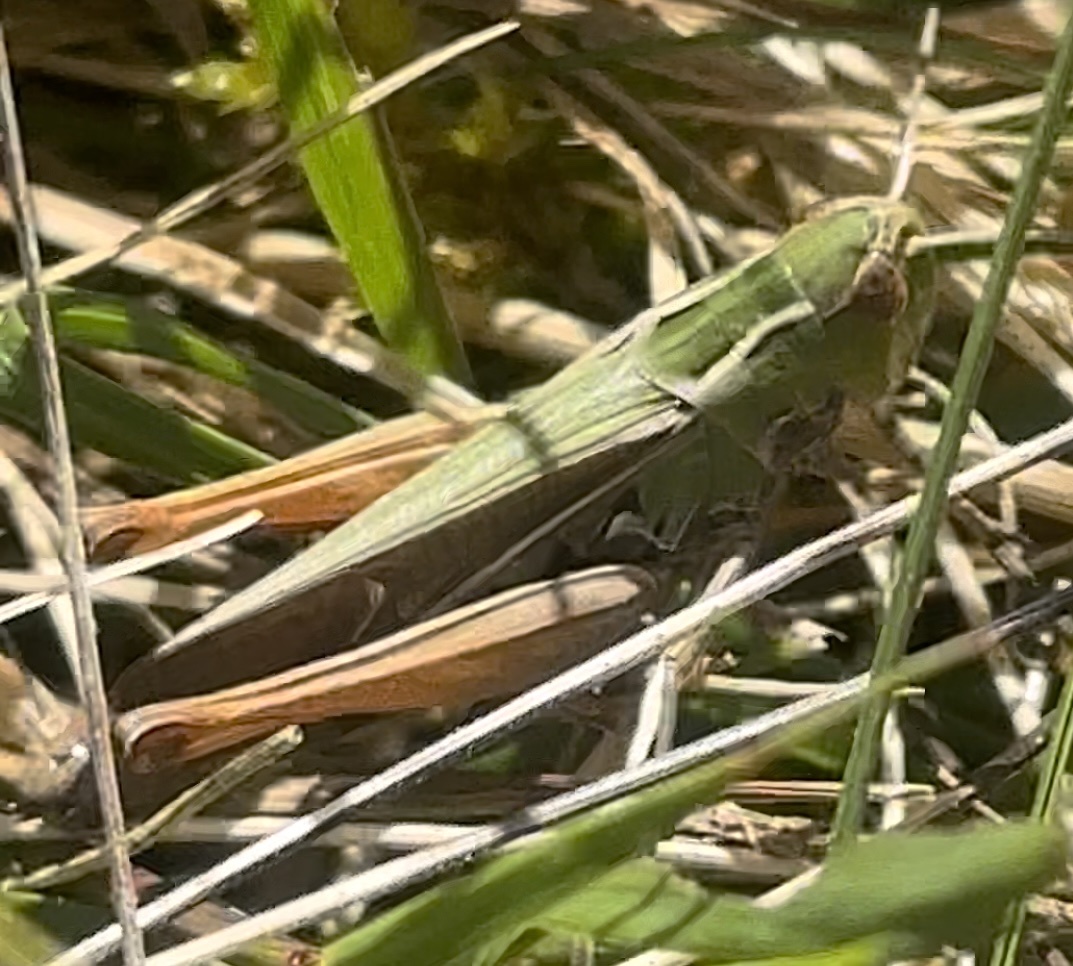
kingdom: Animalia
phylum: Arthropoda
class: Insecta
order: Orthoptera
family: Acrididae
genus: Stenobothrus
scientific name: Stenobothrus lineatus
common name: Stripe-winged grasshopper
